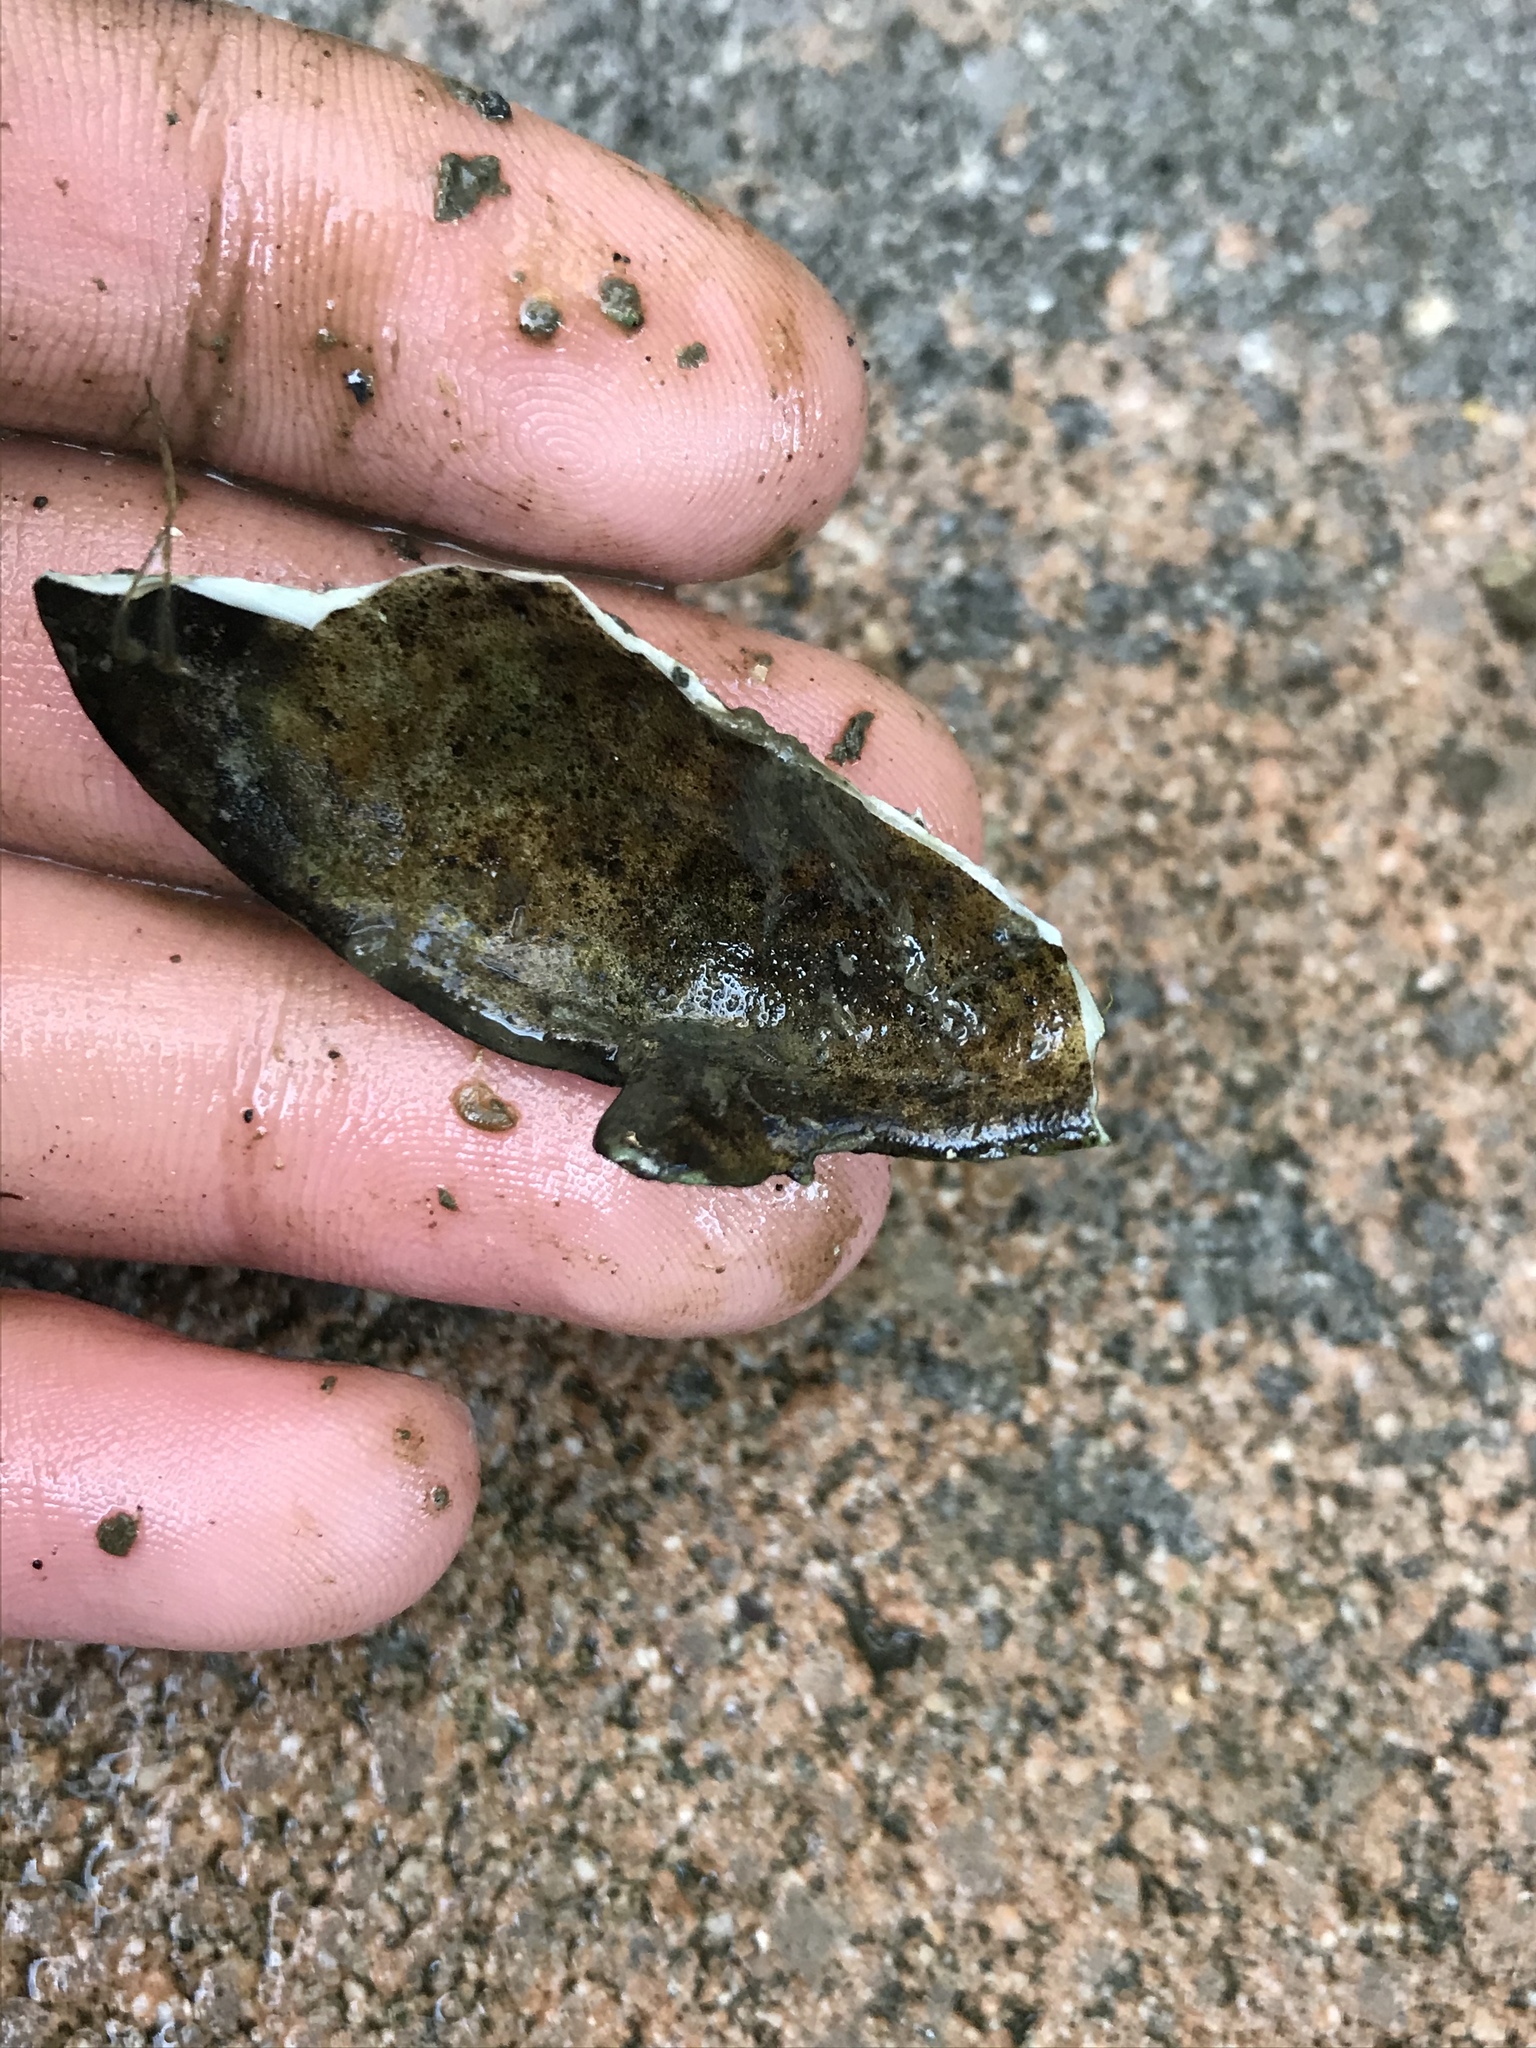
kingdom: Animalia
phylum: Mollusca
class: Bivalvia
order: Myida
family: Myidae
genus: Mya
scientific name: Mya arenaria
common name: Soft-shelled clam
